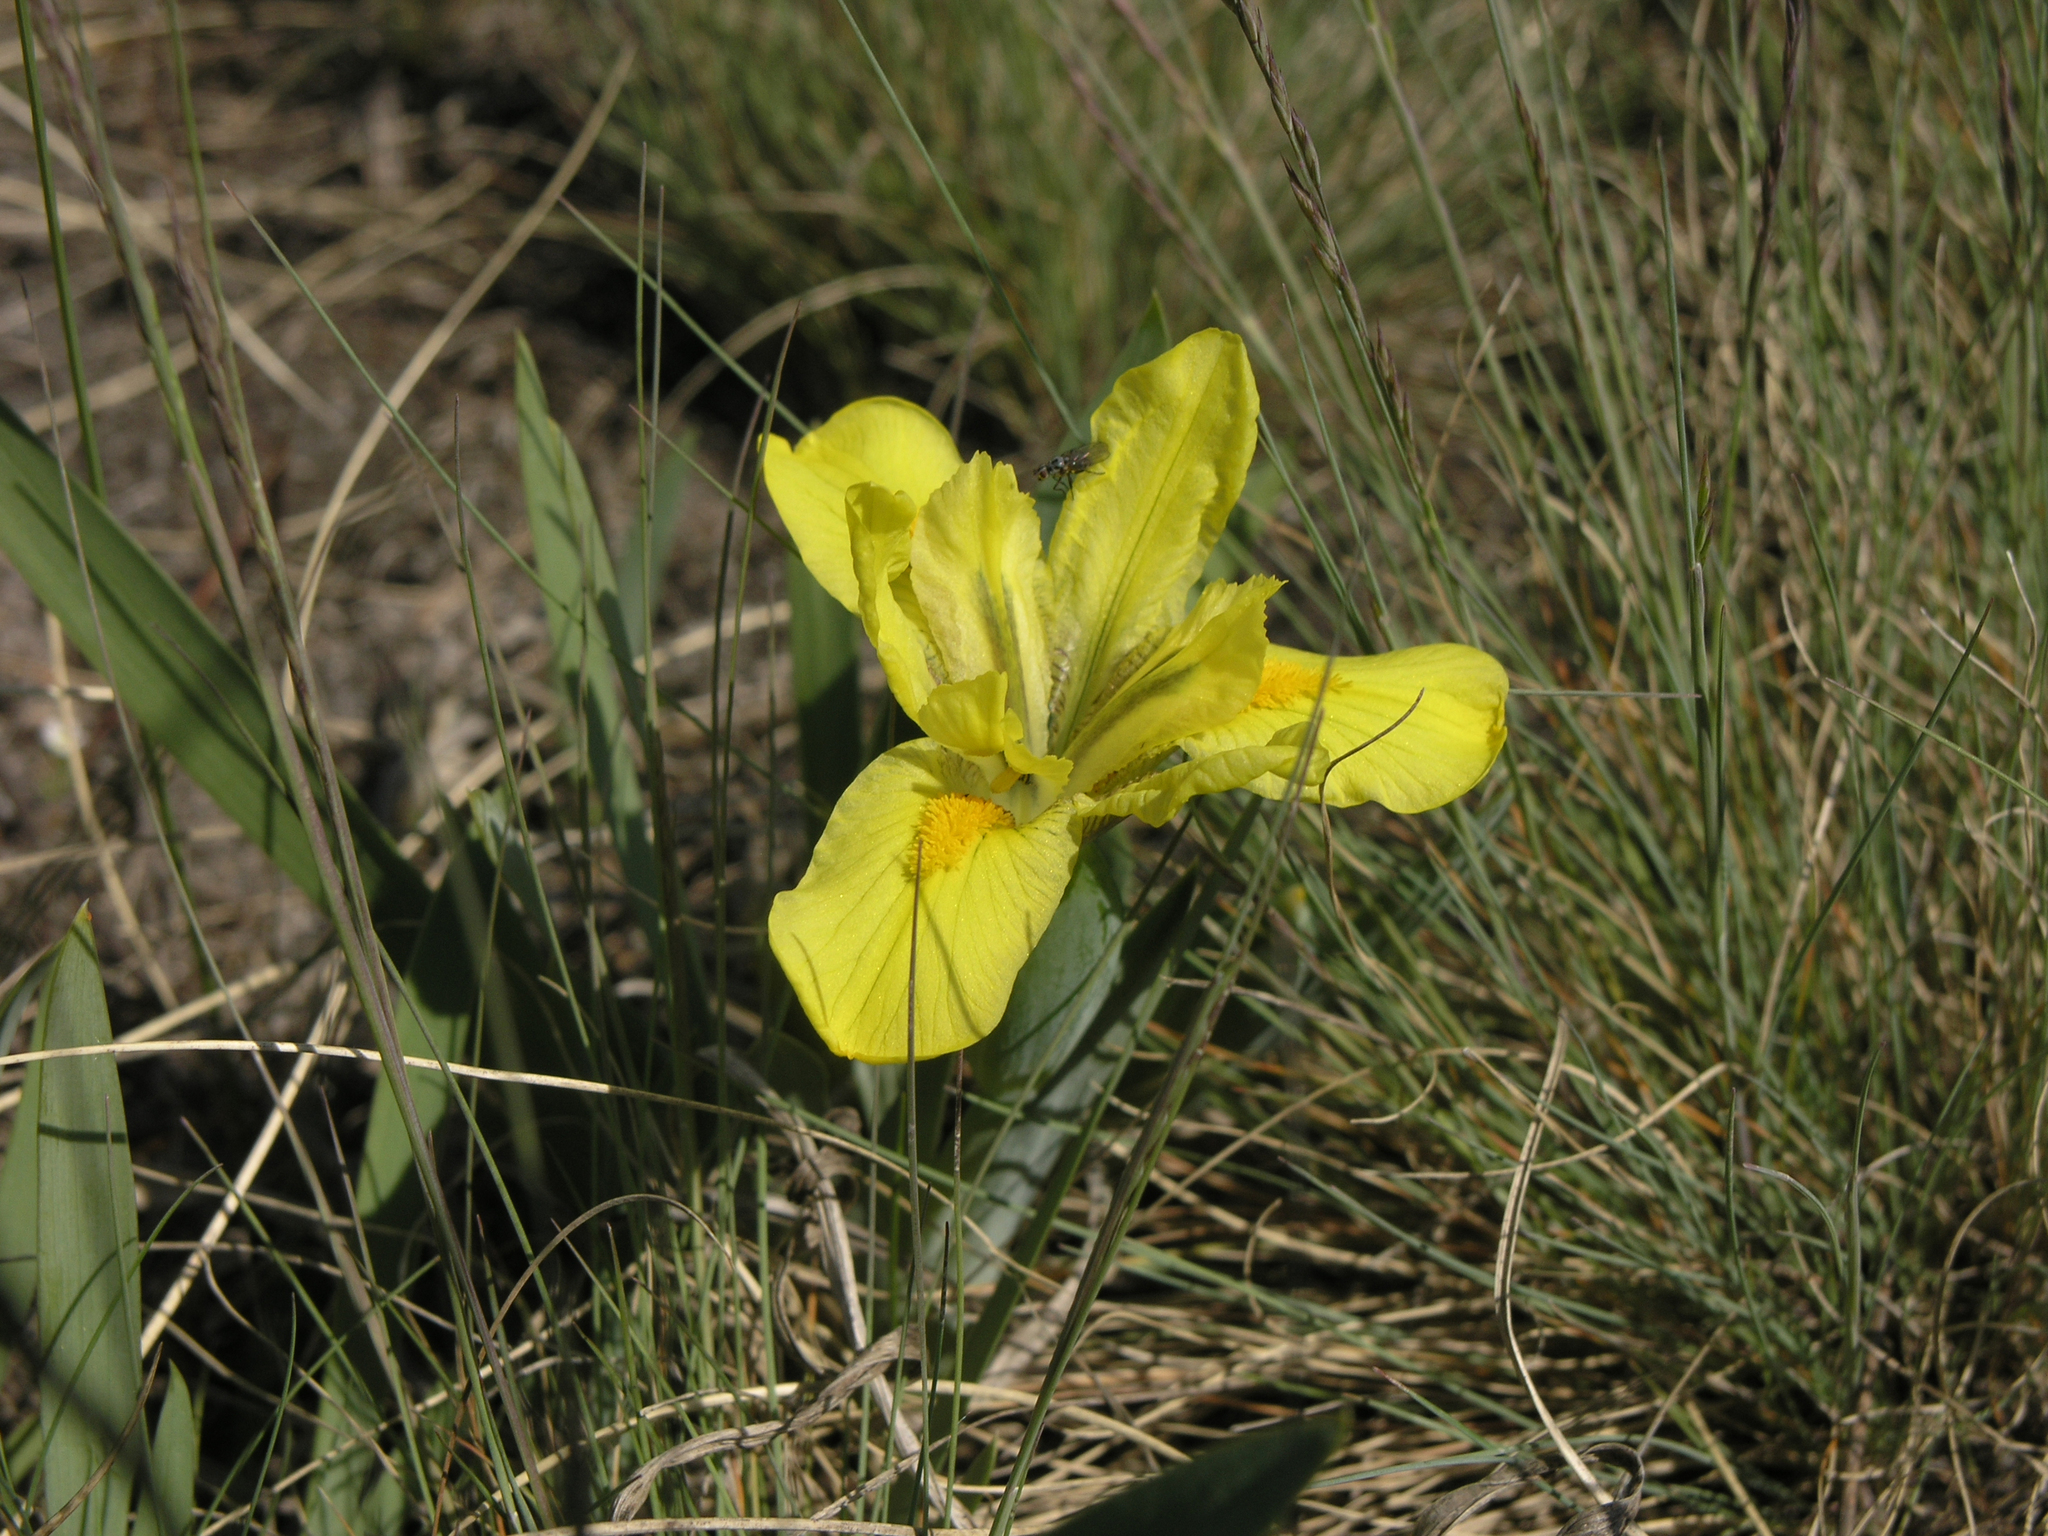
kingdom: Plantae
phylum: Tracheophyta
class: Liliopsida
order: Asparagales
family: Iridaceae
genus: Iris
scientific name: Iris humilis
